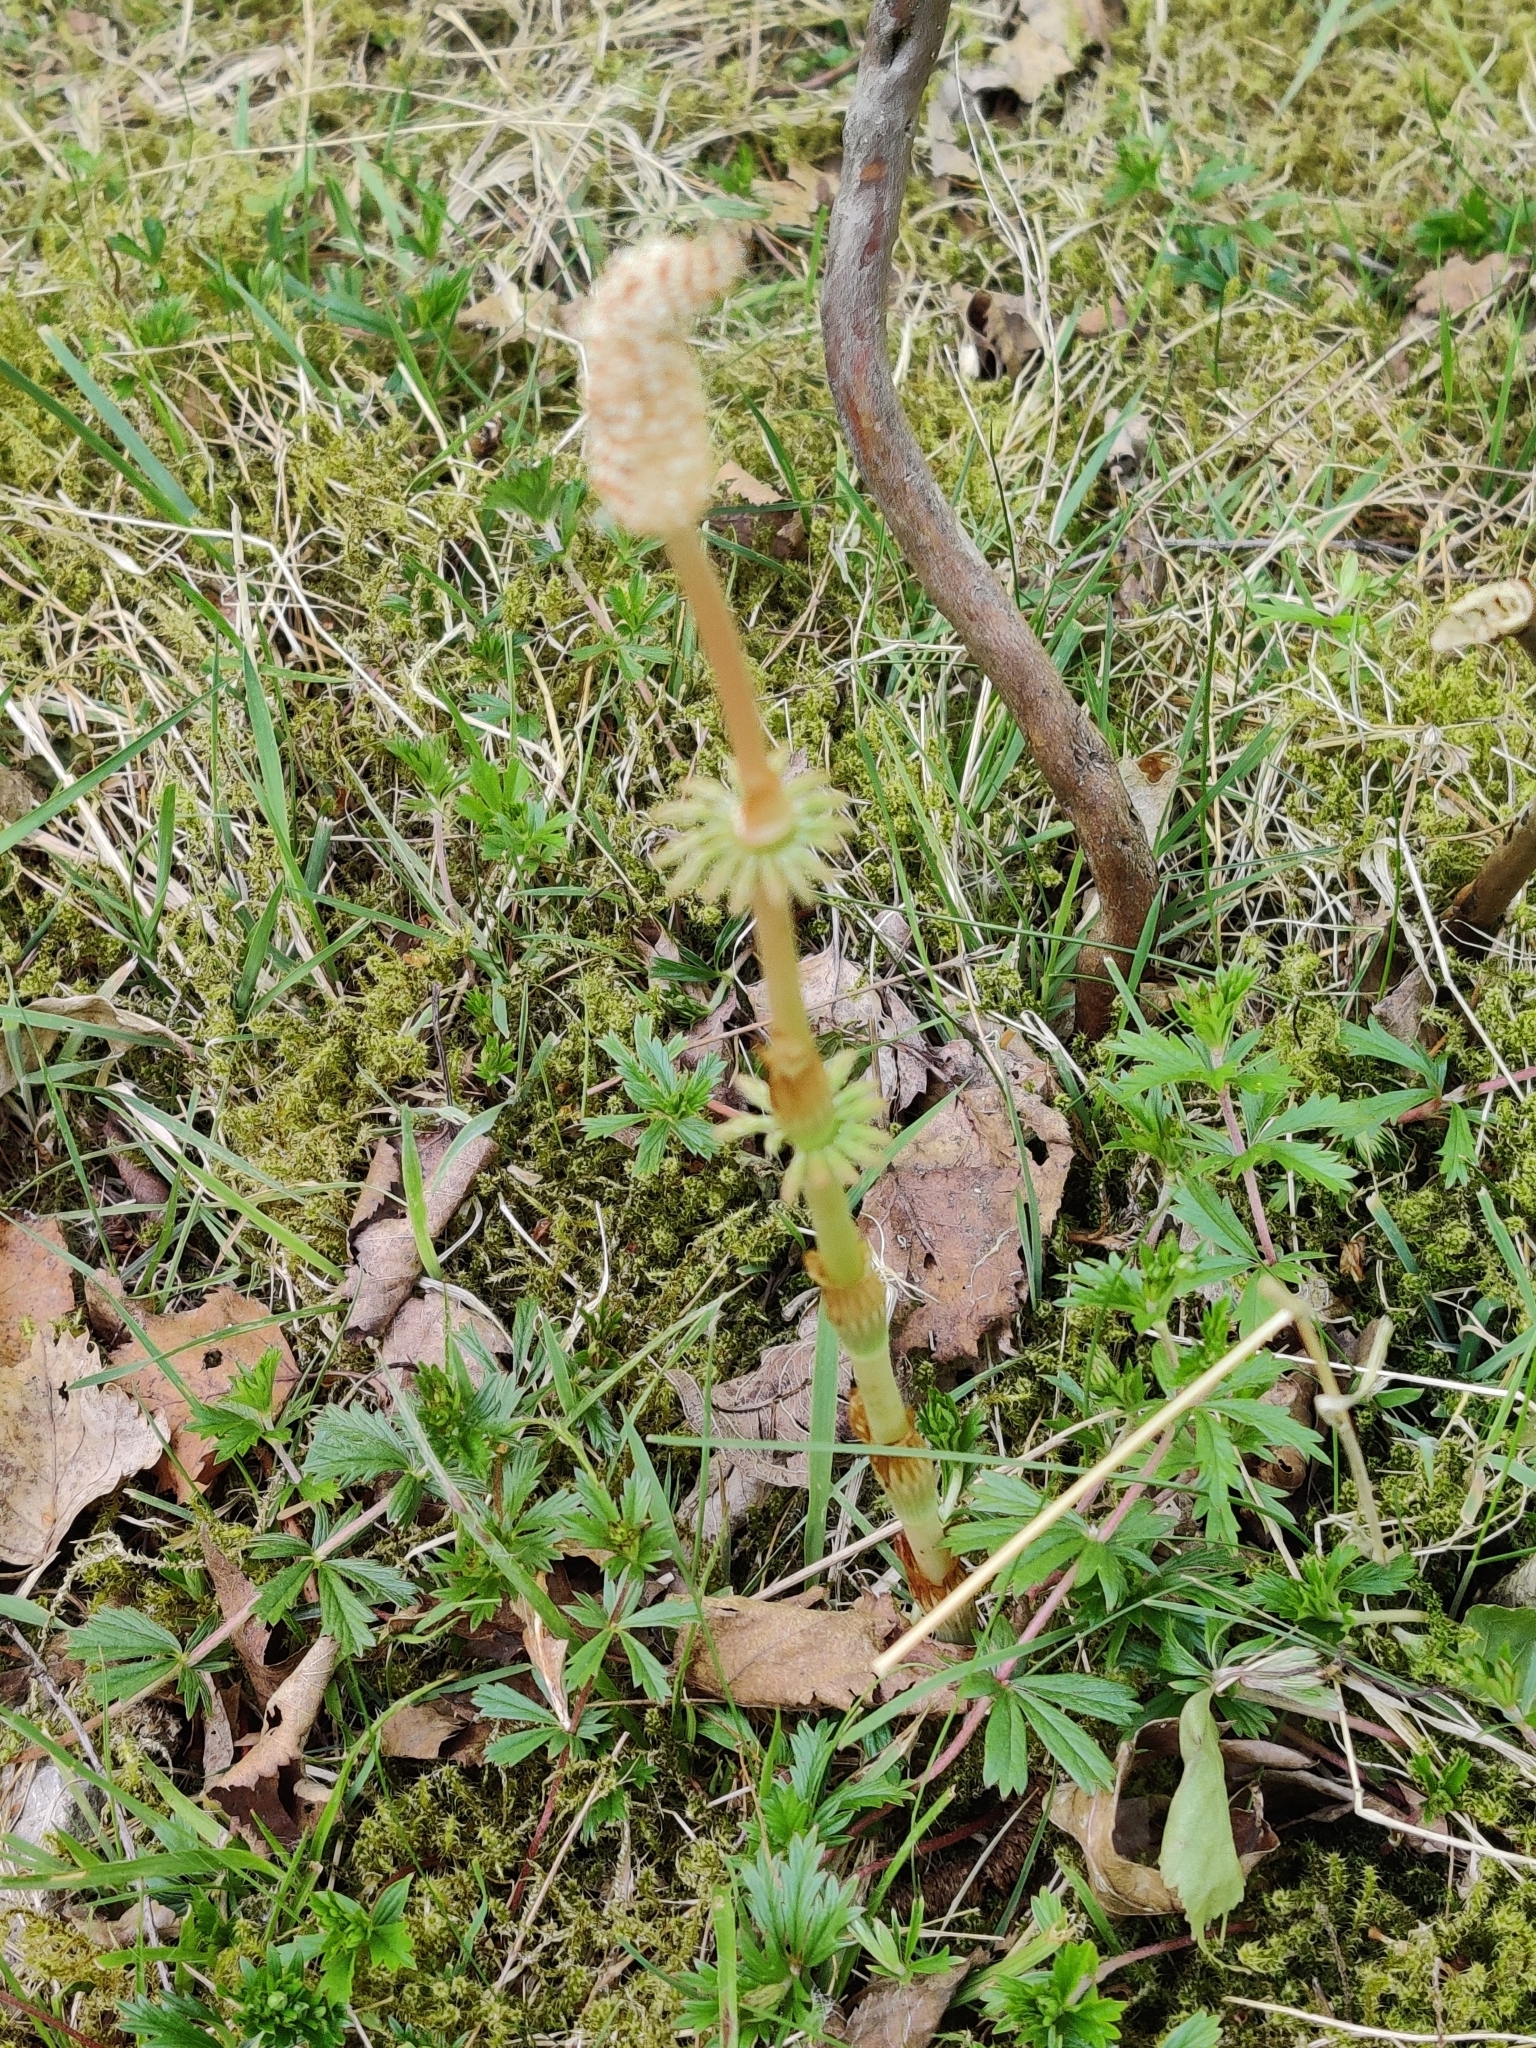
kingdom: Plantae
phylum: Tracheophyta
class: Polypodiopsida
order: Equisetales
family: Equisetaceae
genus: Equisetum
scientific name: Equisetum sylvaticum
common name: Wood horsetail
